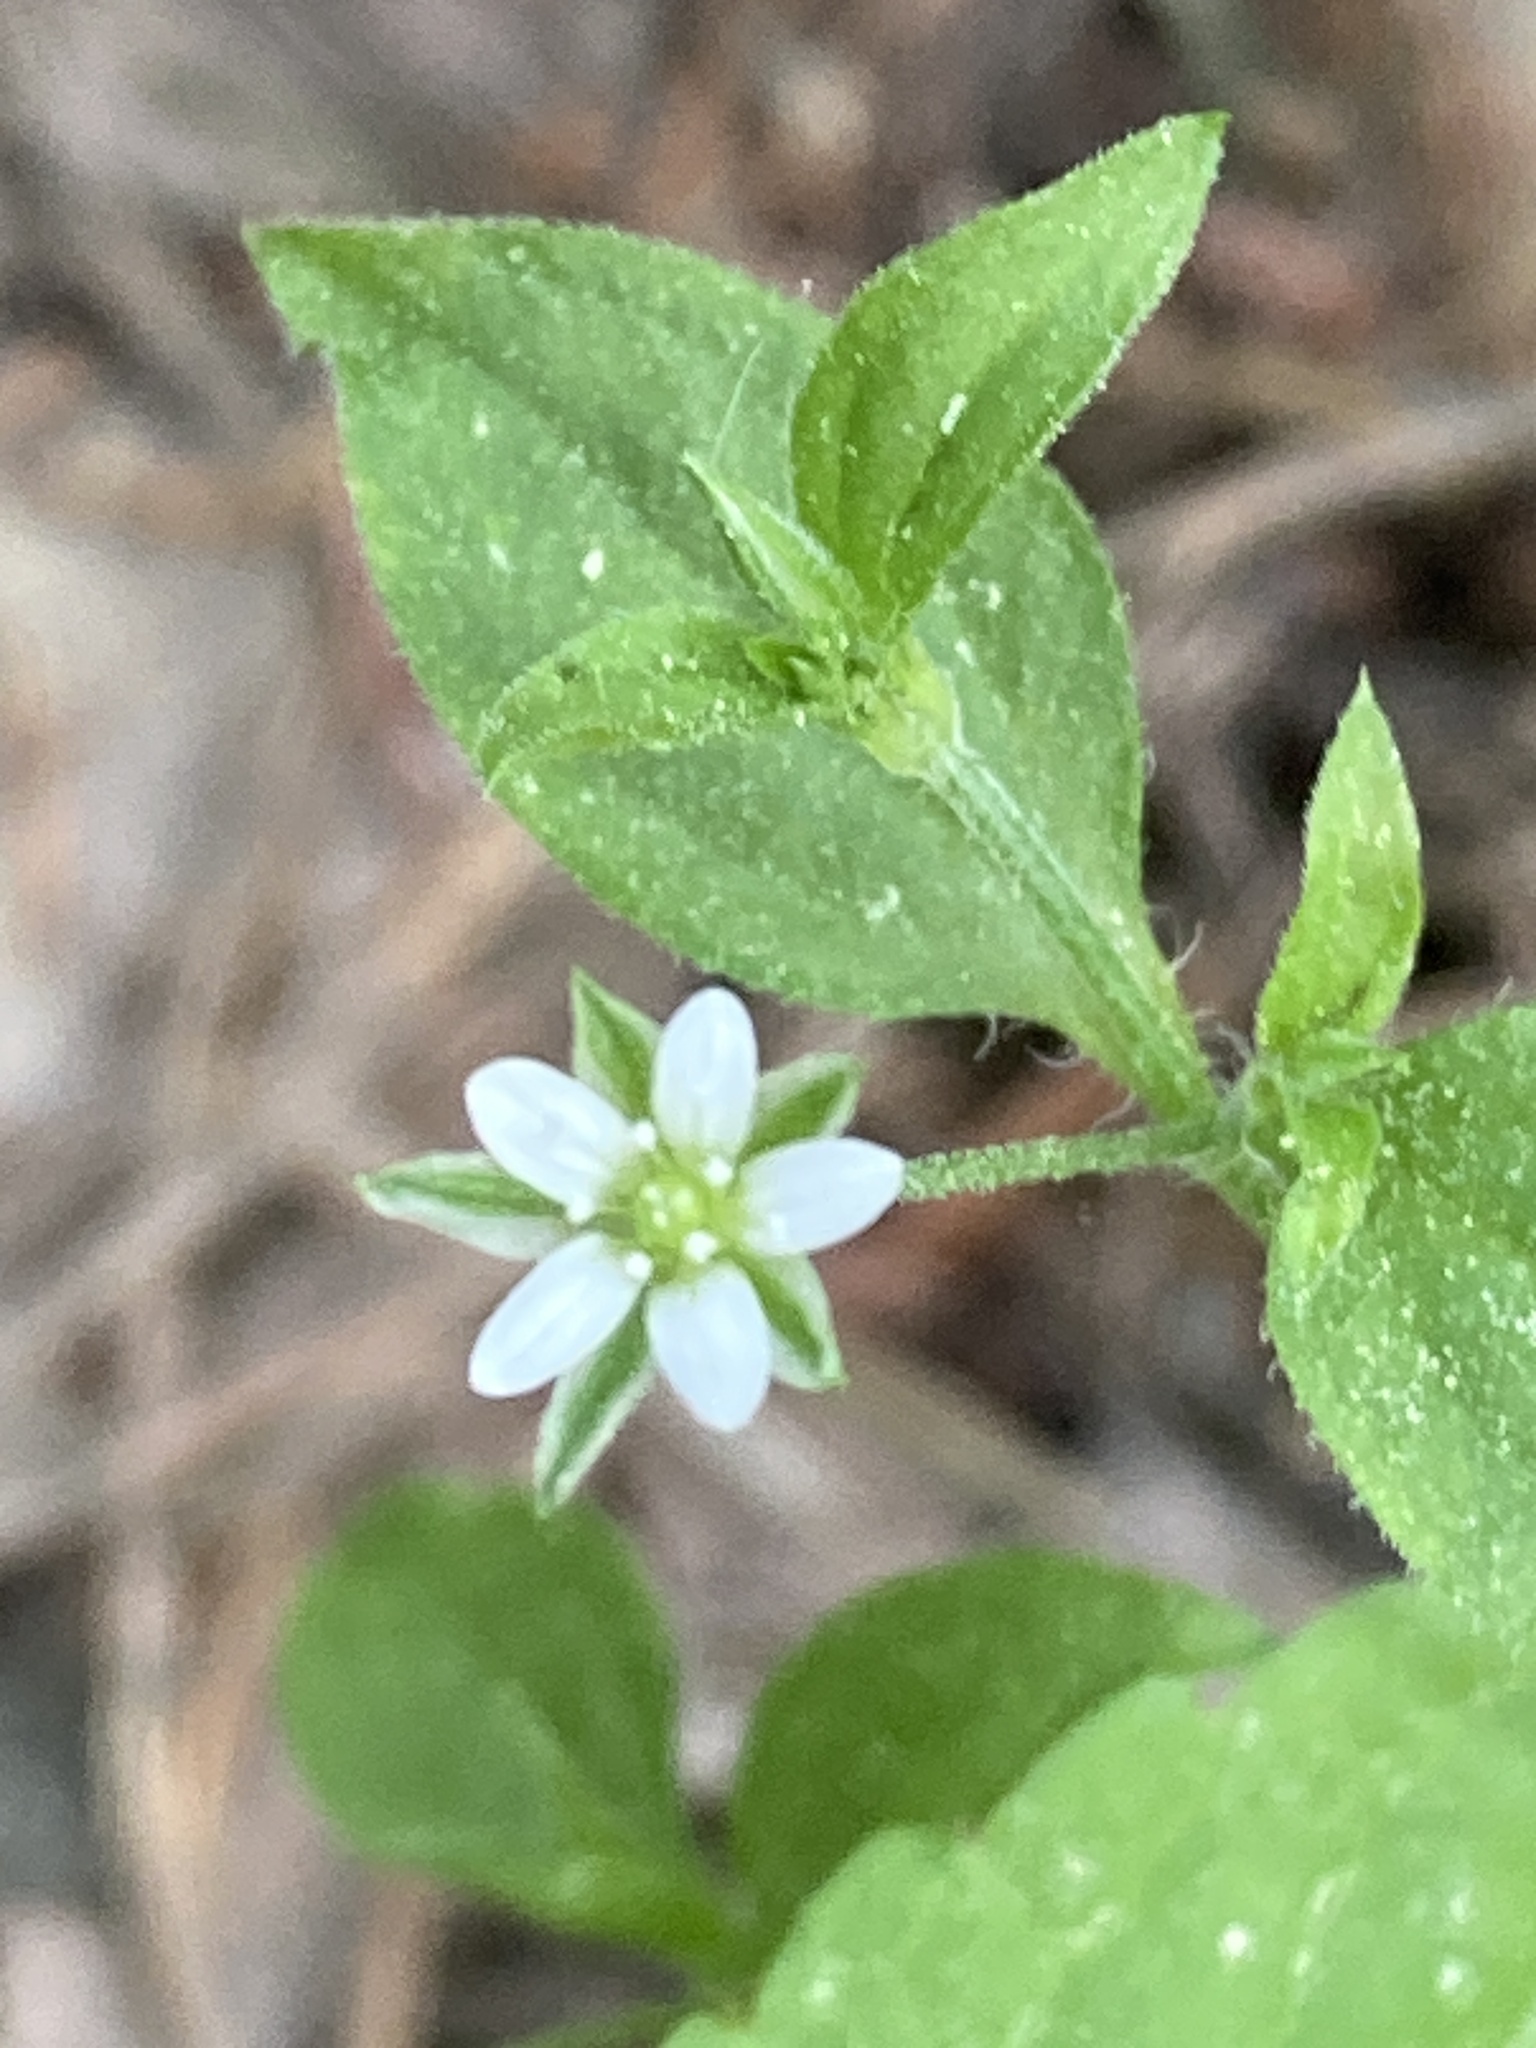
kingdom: Plantae
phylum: Tracheophyta
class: Magnoliopsida
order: Caryophyllales
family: Caryophyllaceae
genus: Moehringia
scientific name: Moehringia trinervia
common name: Three-nerved sandwort
